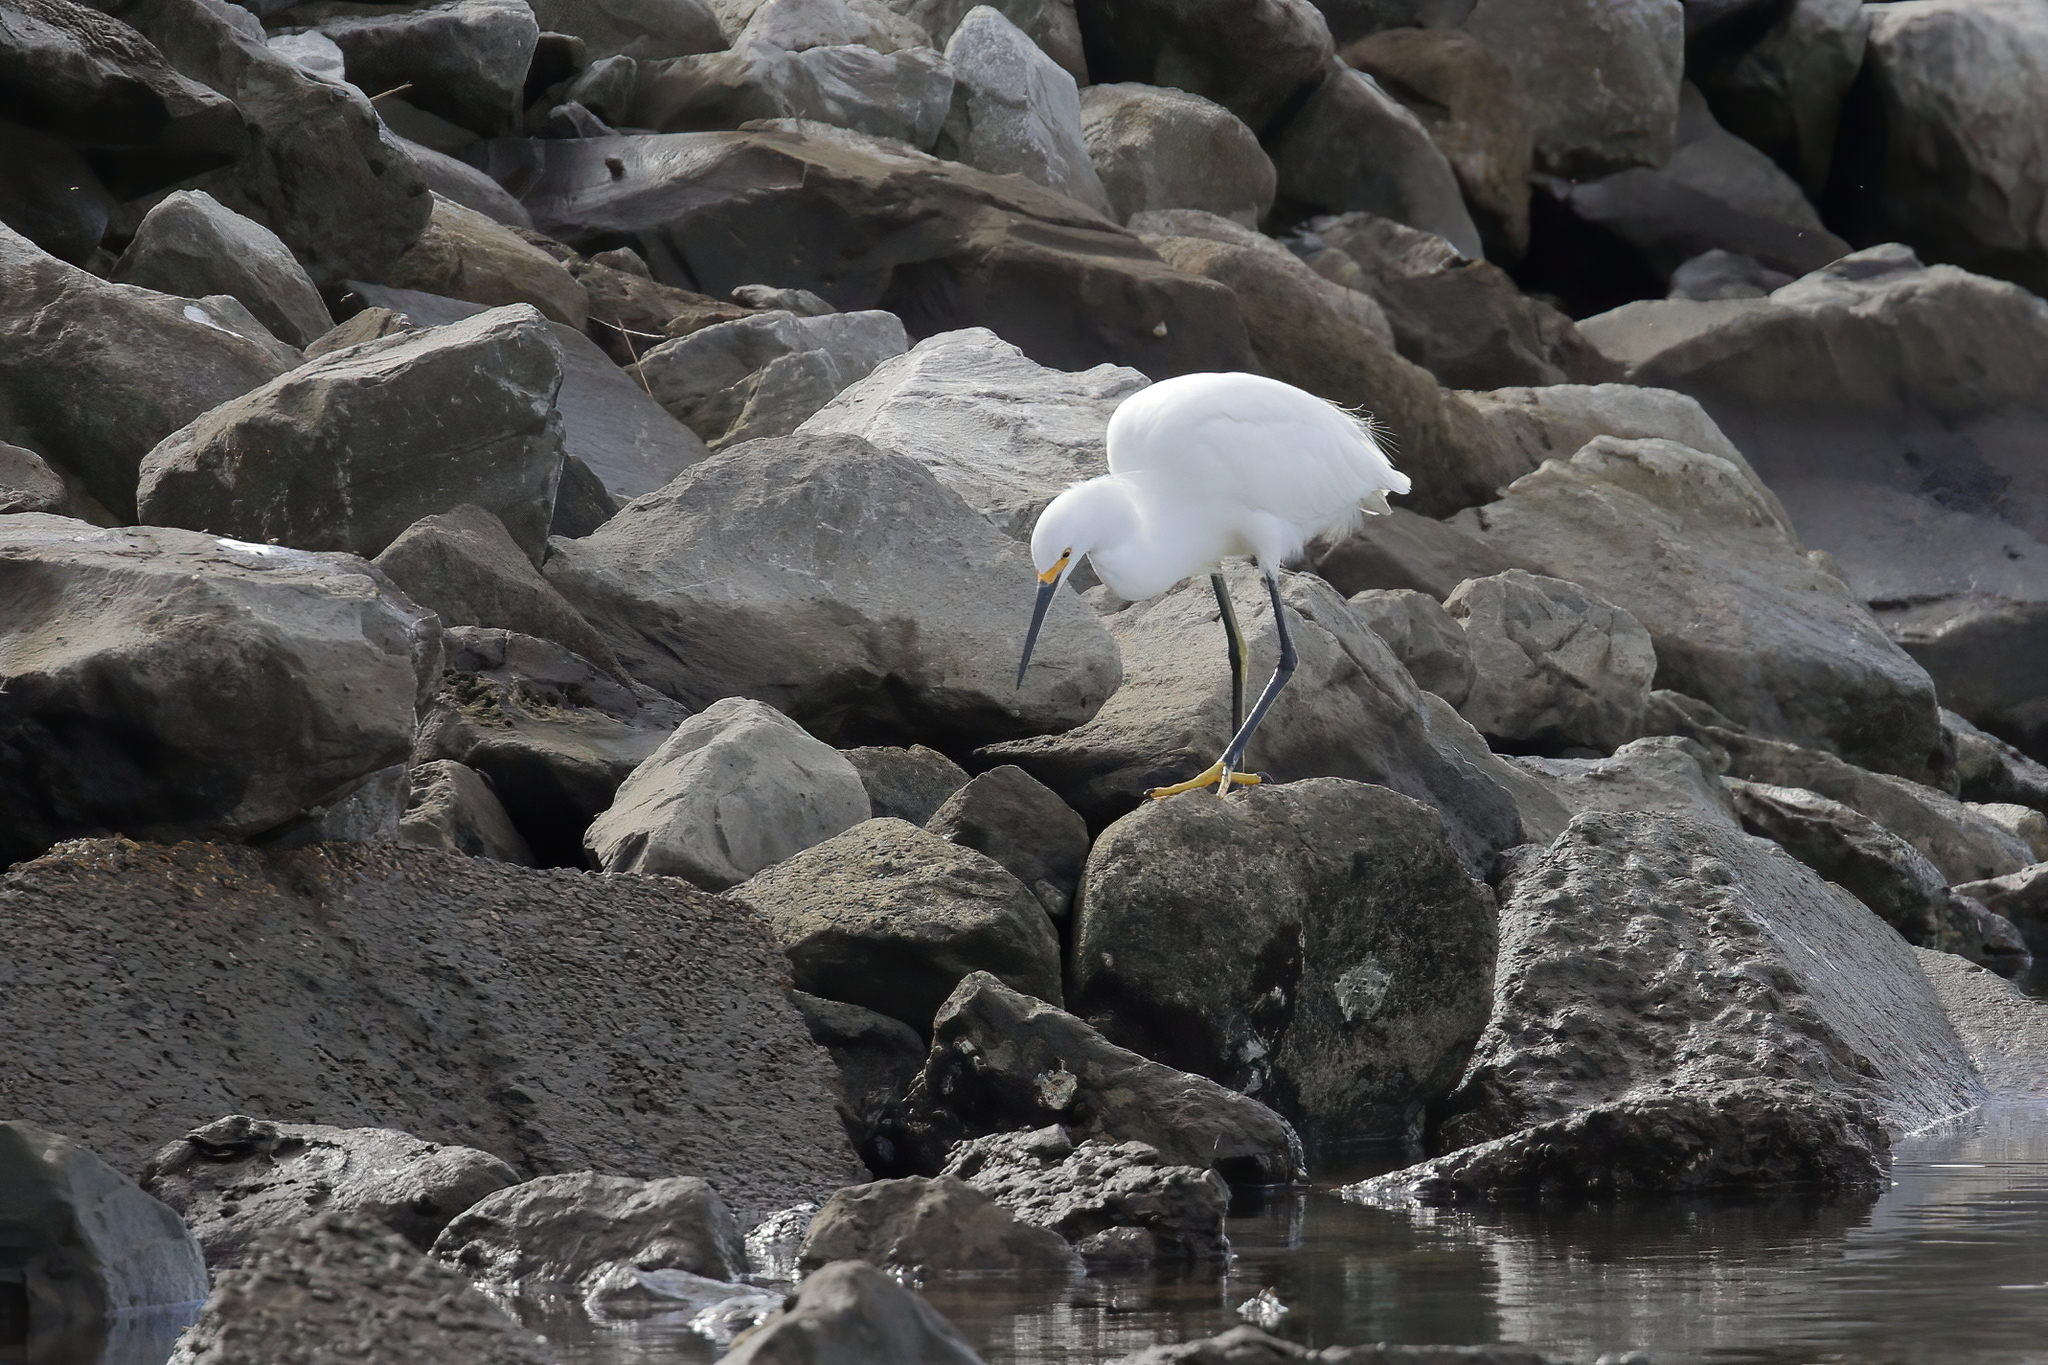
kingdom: Animalia
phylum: Chordata
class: Aves
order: Pelecaniformes
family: Ardeidae
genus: Egretta
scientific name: Egretta thula
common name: Snowy egret
